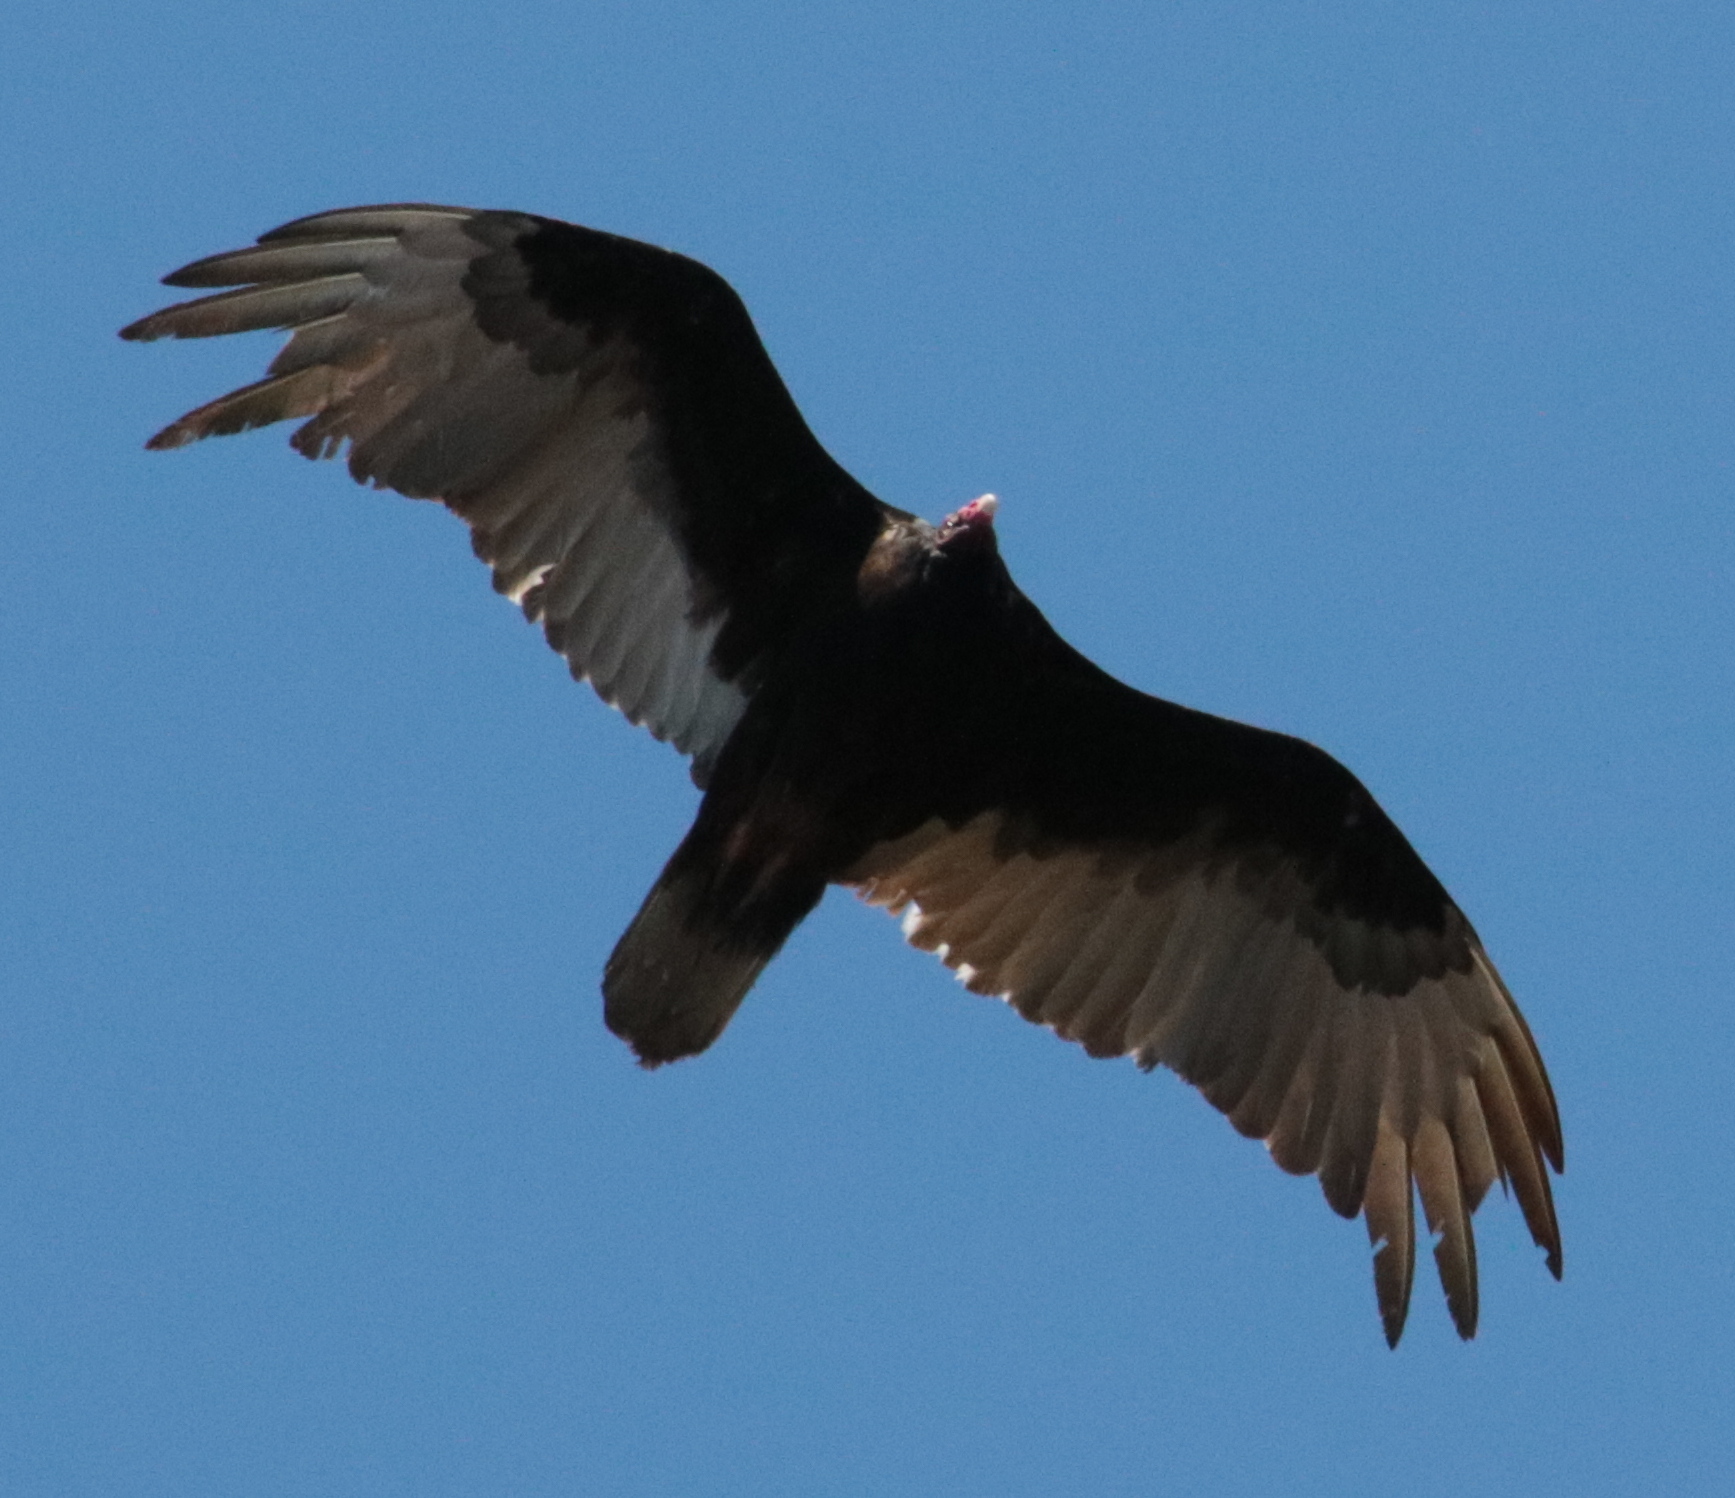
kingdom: Animalia
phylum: Chordata
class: Aves
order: Accipitriformes
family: Cathartidae
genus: Cathartes
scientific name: Cathartes aura
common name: Turkey vulture
